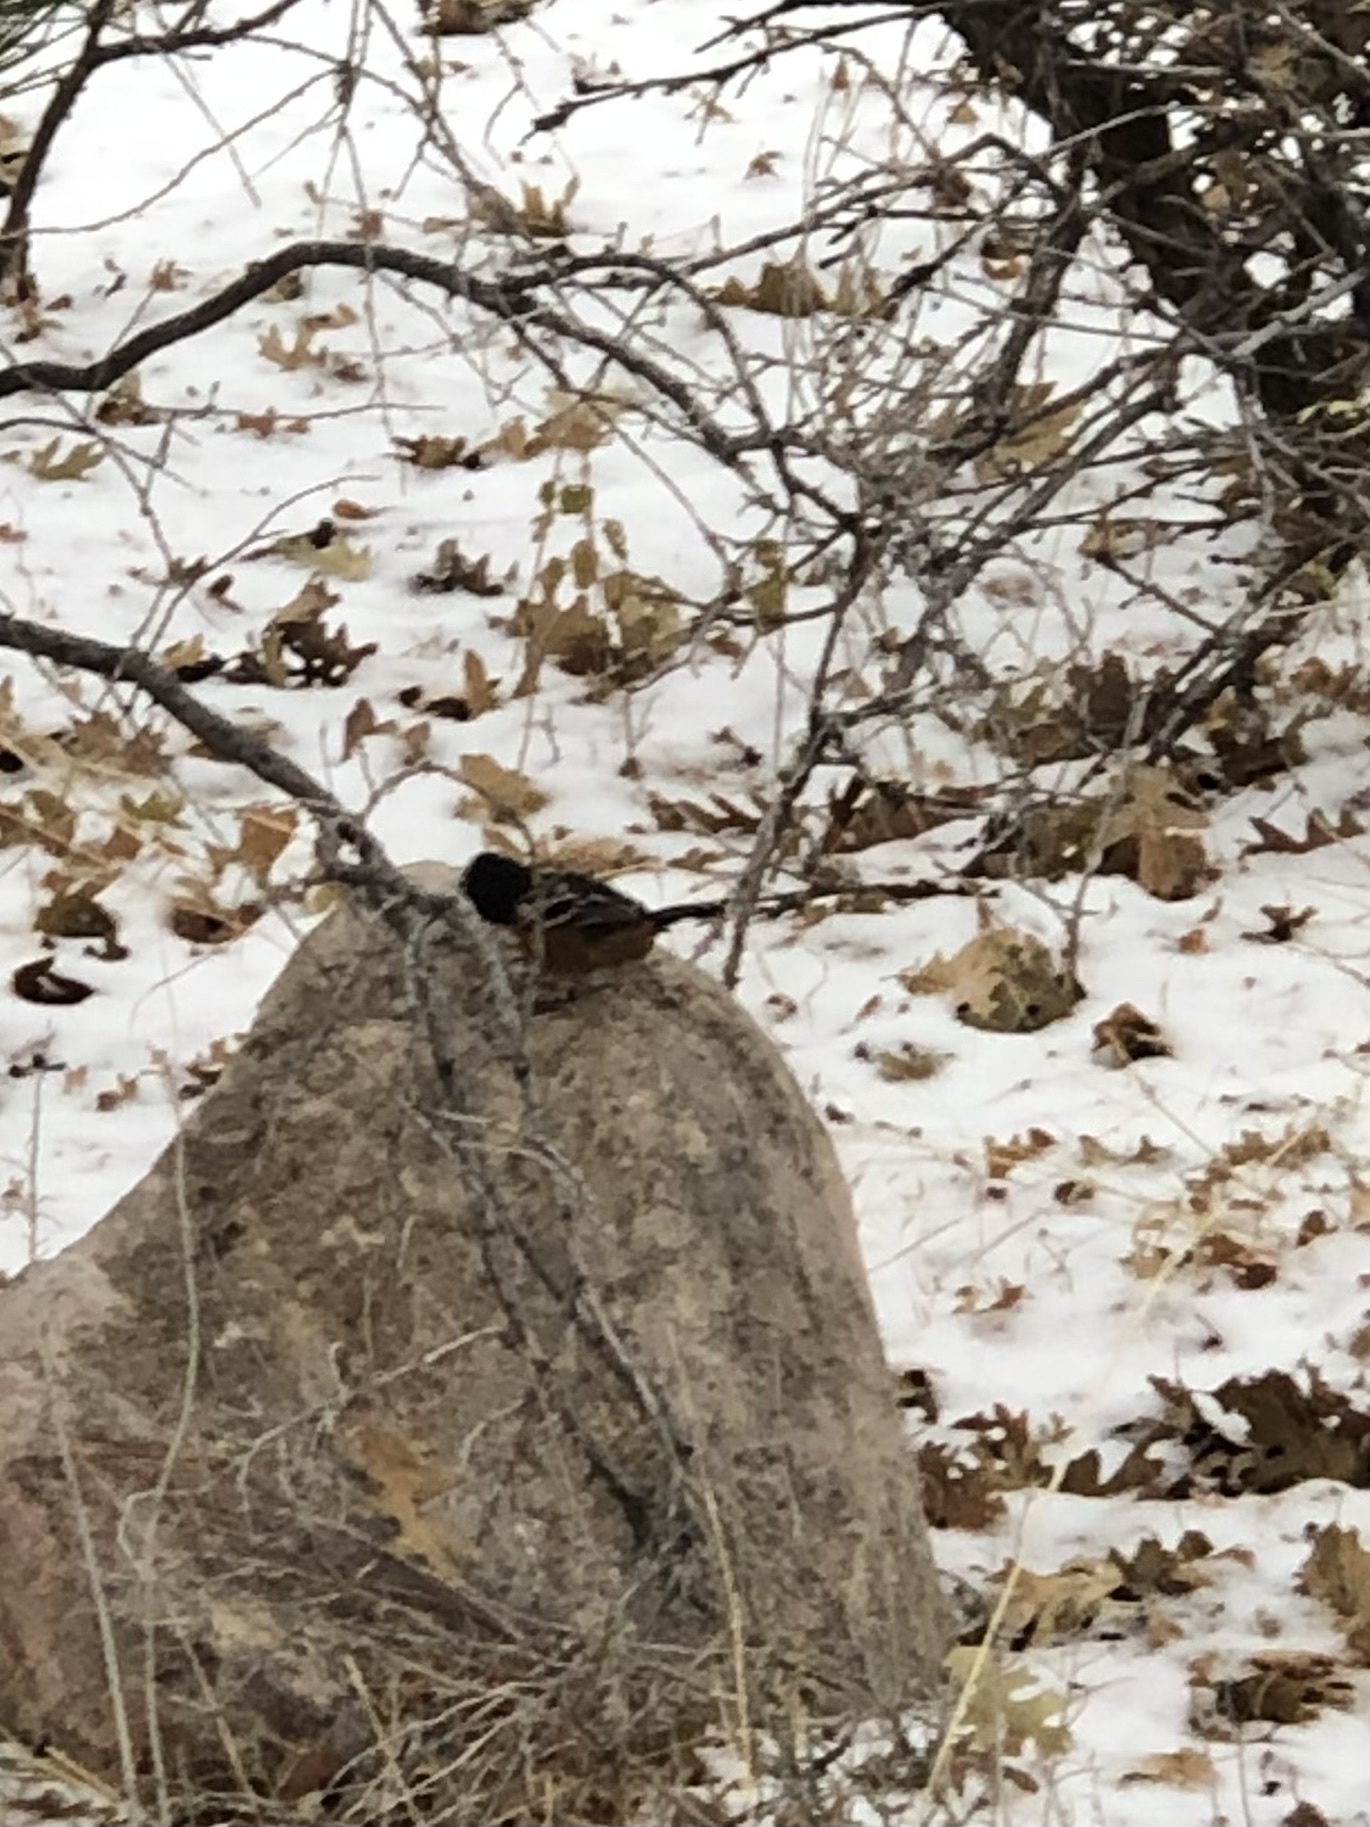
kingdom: Animalia
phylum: Chordata
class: Aves
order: Passeriformes
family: Passerellidae
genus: Pipilo
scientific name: Pipilo maculatus
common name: Spotted towhee
